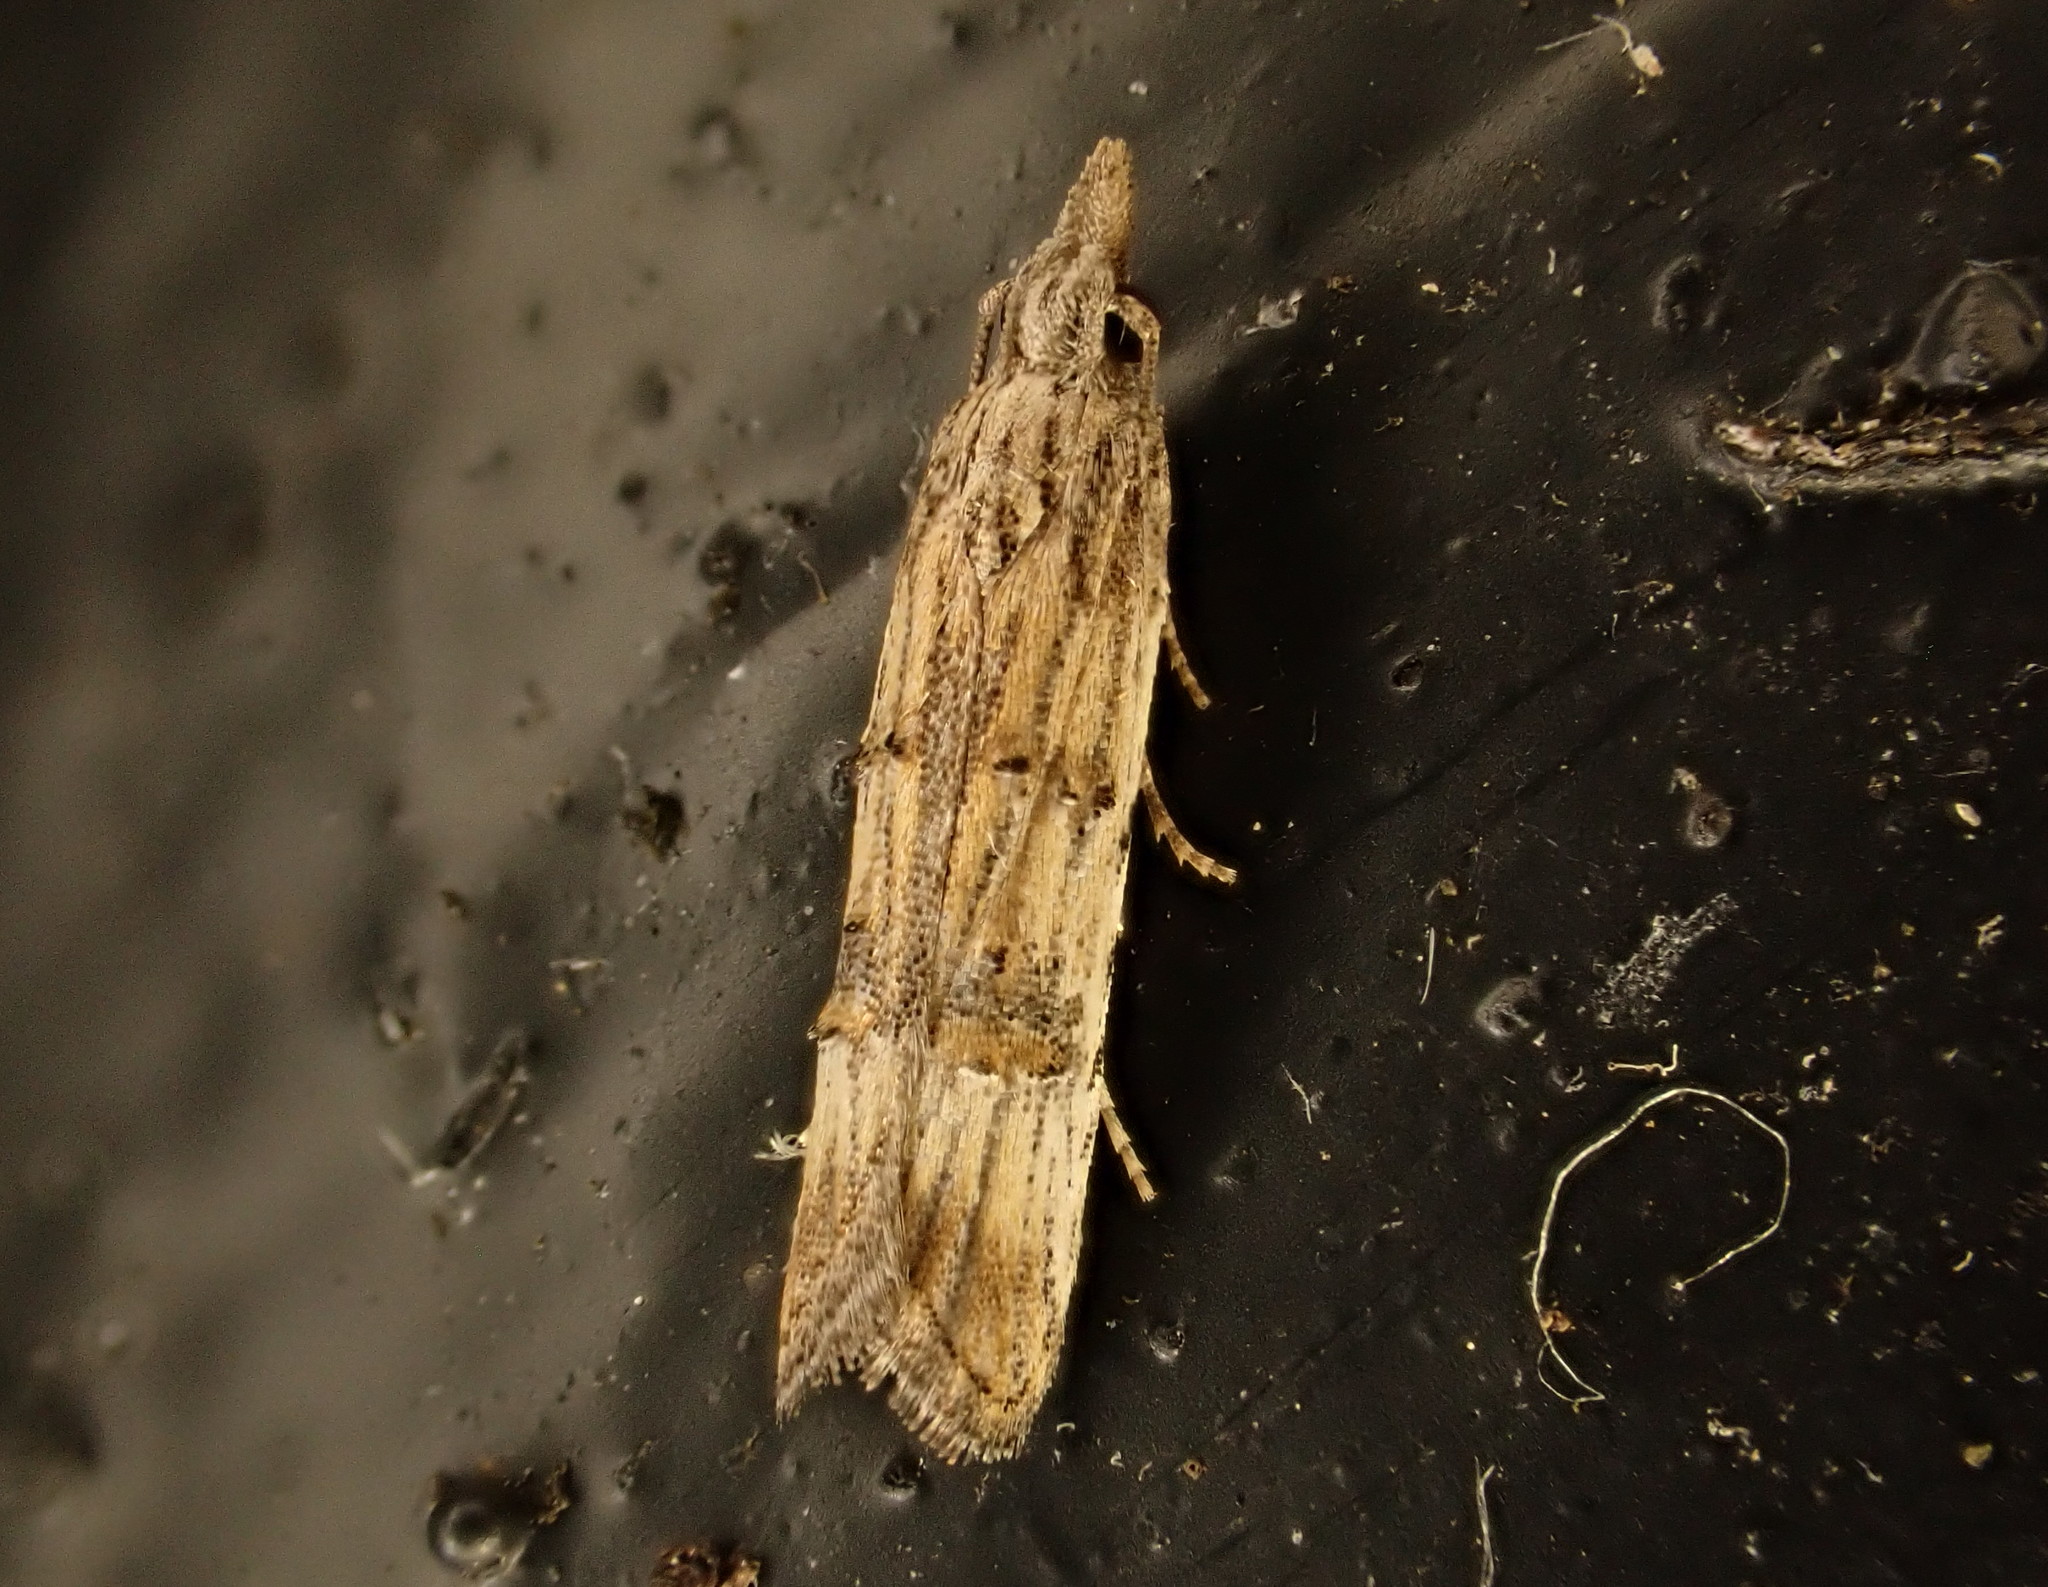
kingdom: Animalia
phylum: Arthropoda
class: Insecta
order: Lepidoptera
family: Carposinidae
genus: Carposina
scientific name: Carposina neurophorella
